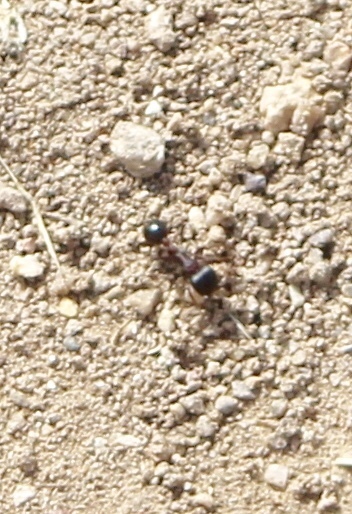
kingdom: Animalia
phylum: Arthropoda
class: Insecta
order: Hymenoptera
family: Formicidae
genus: Pogonomyrmex
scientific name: Pogonomyrmex rugosus
